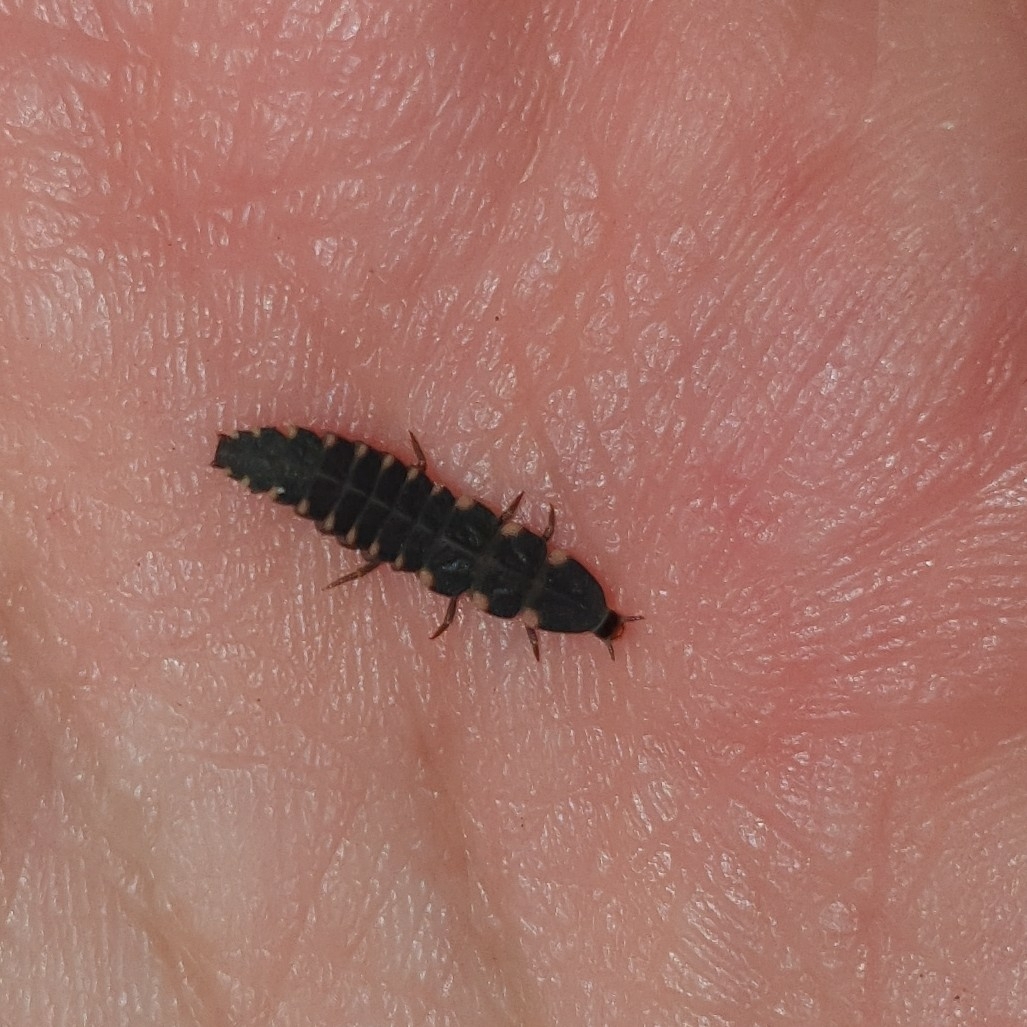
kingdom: Animalia
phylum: Arthropoda
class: Insecta
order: Coleoptera
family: Lampyridae
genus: Lampyris
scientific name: Lampyris noctiluca
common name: Glow-worm
